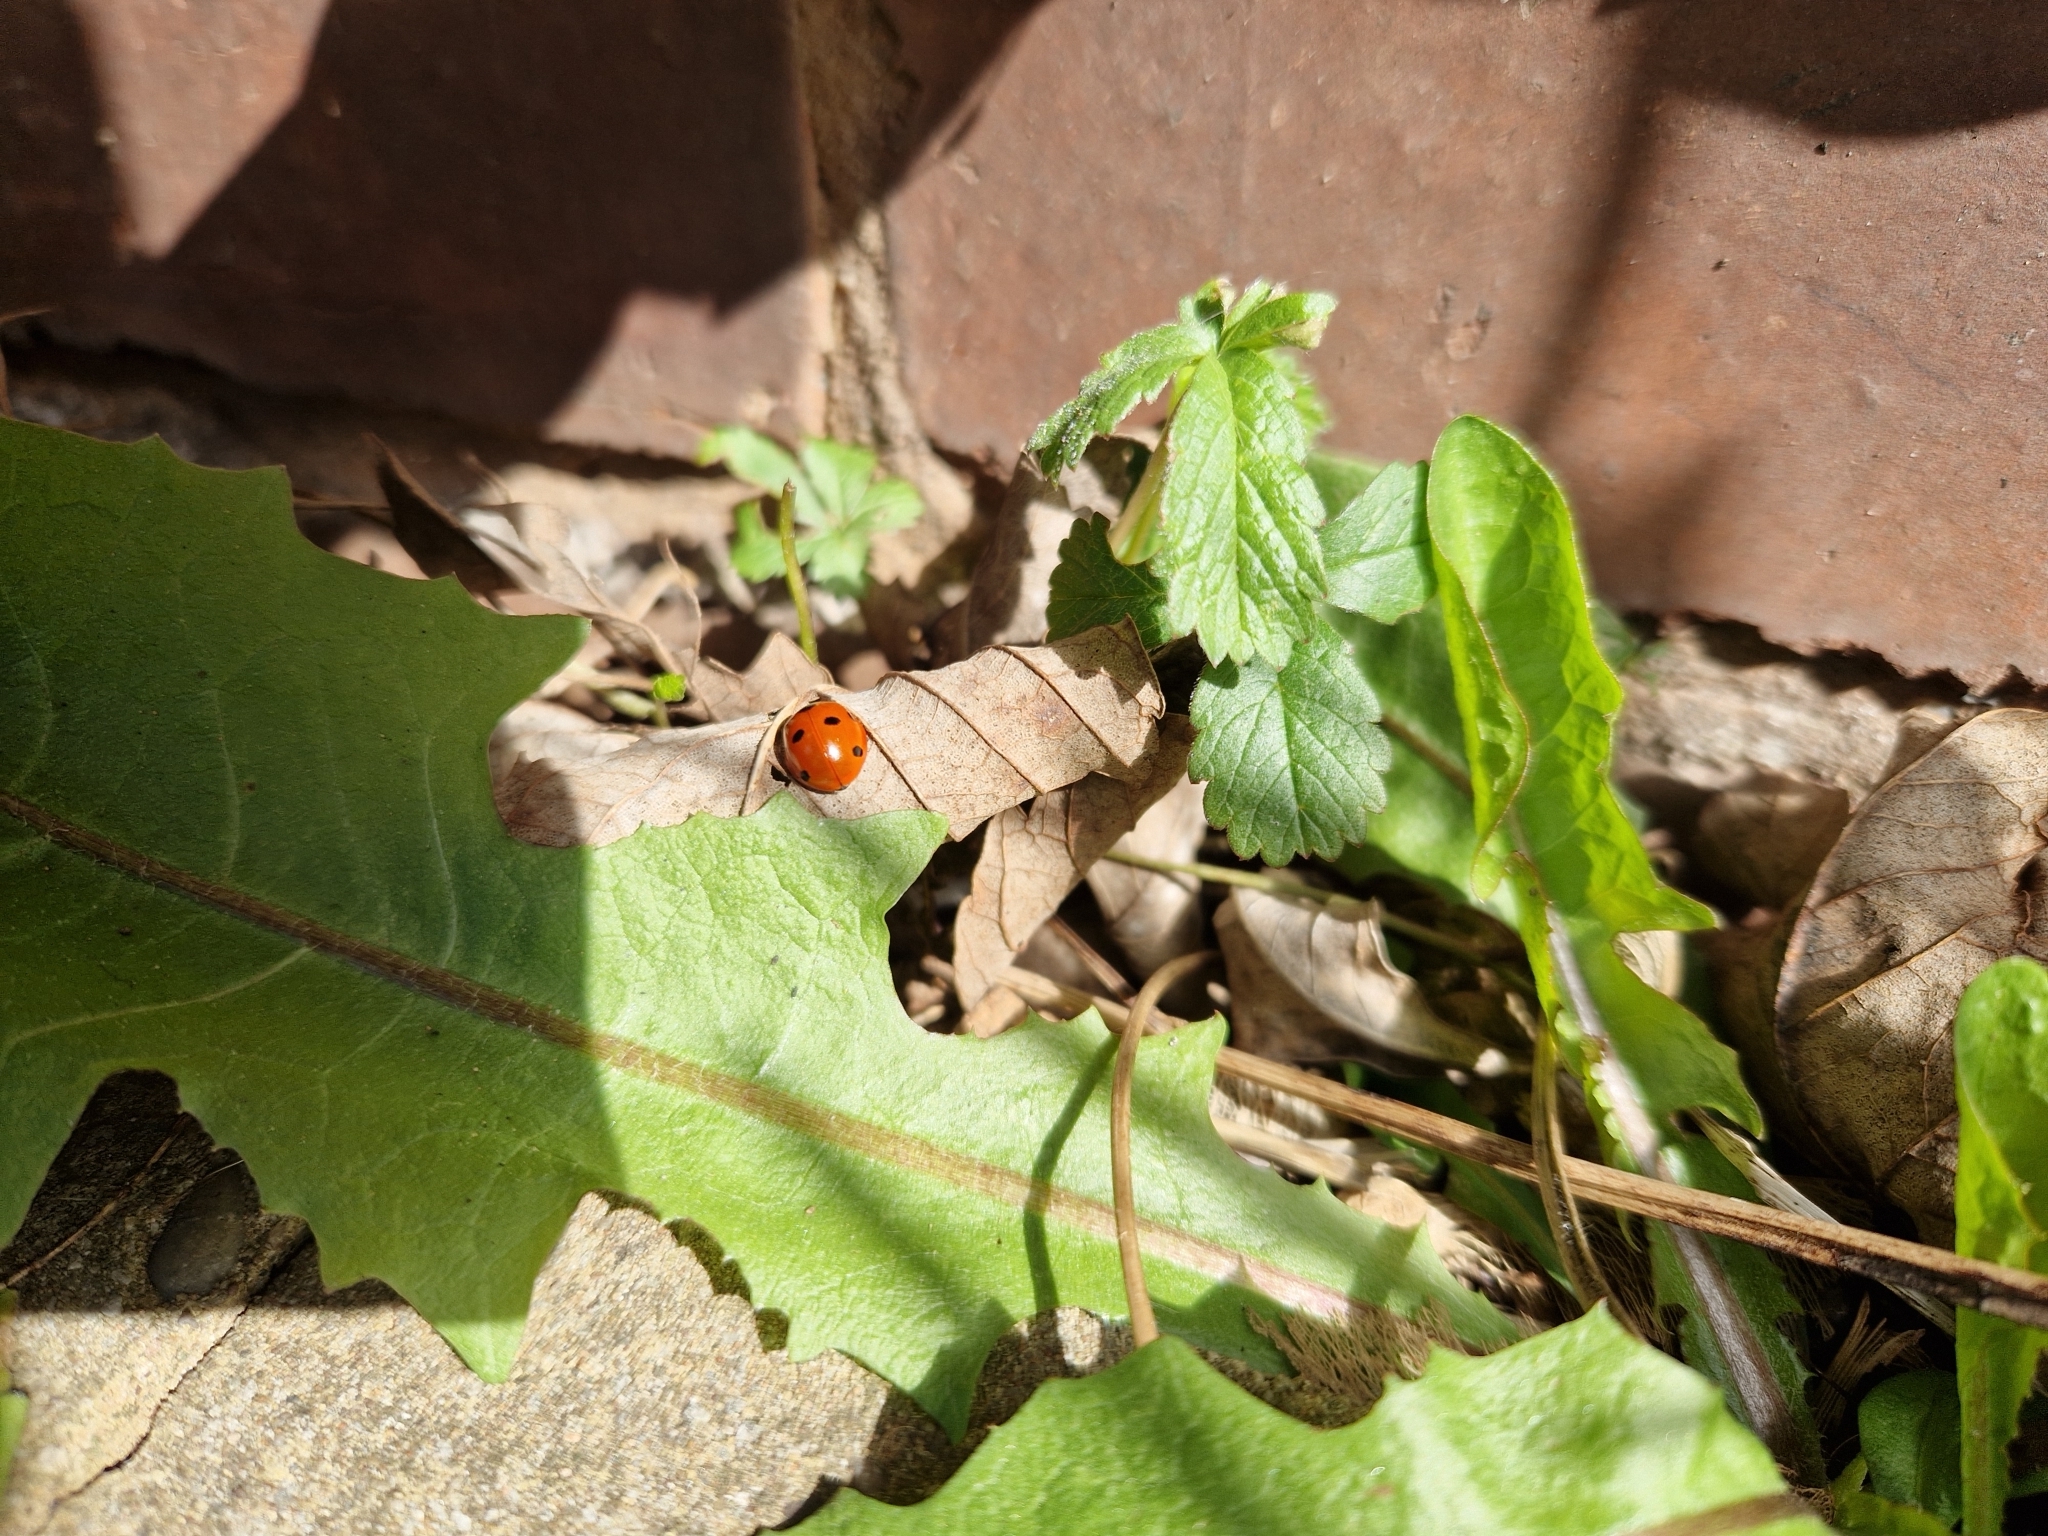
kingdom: Animalia
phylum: Arthropoda
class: Insecta
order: Coleoptera
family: Coccinellidae
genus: Coccinella
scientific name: Coccinella septempunctata
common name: Sevenspotted lady beetle
